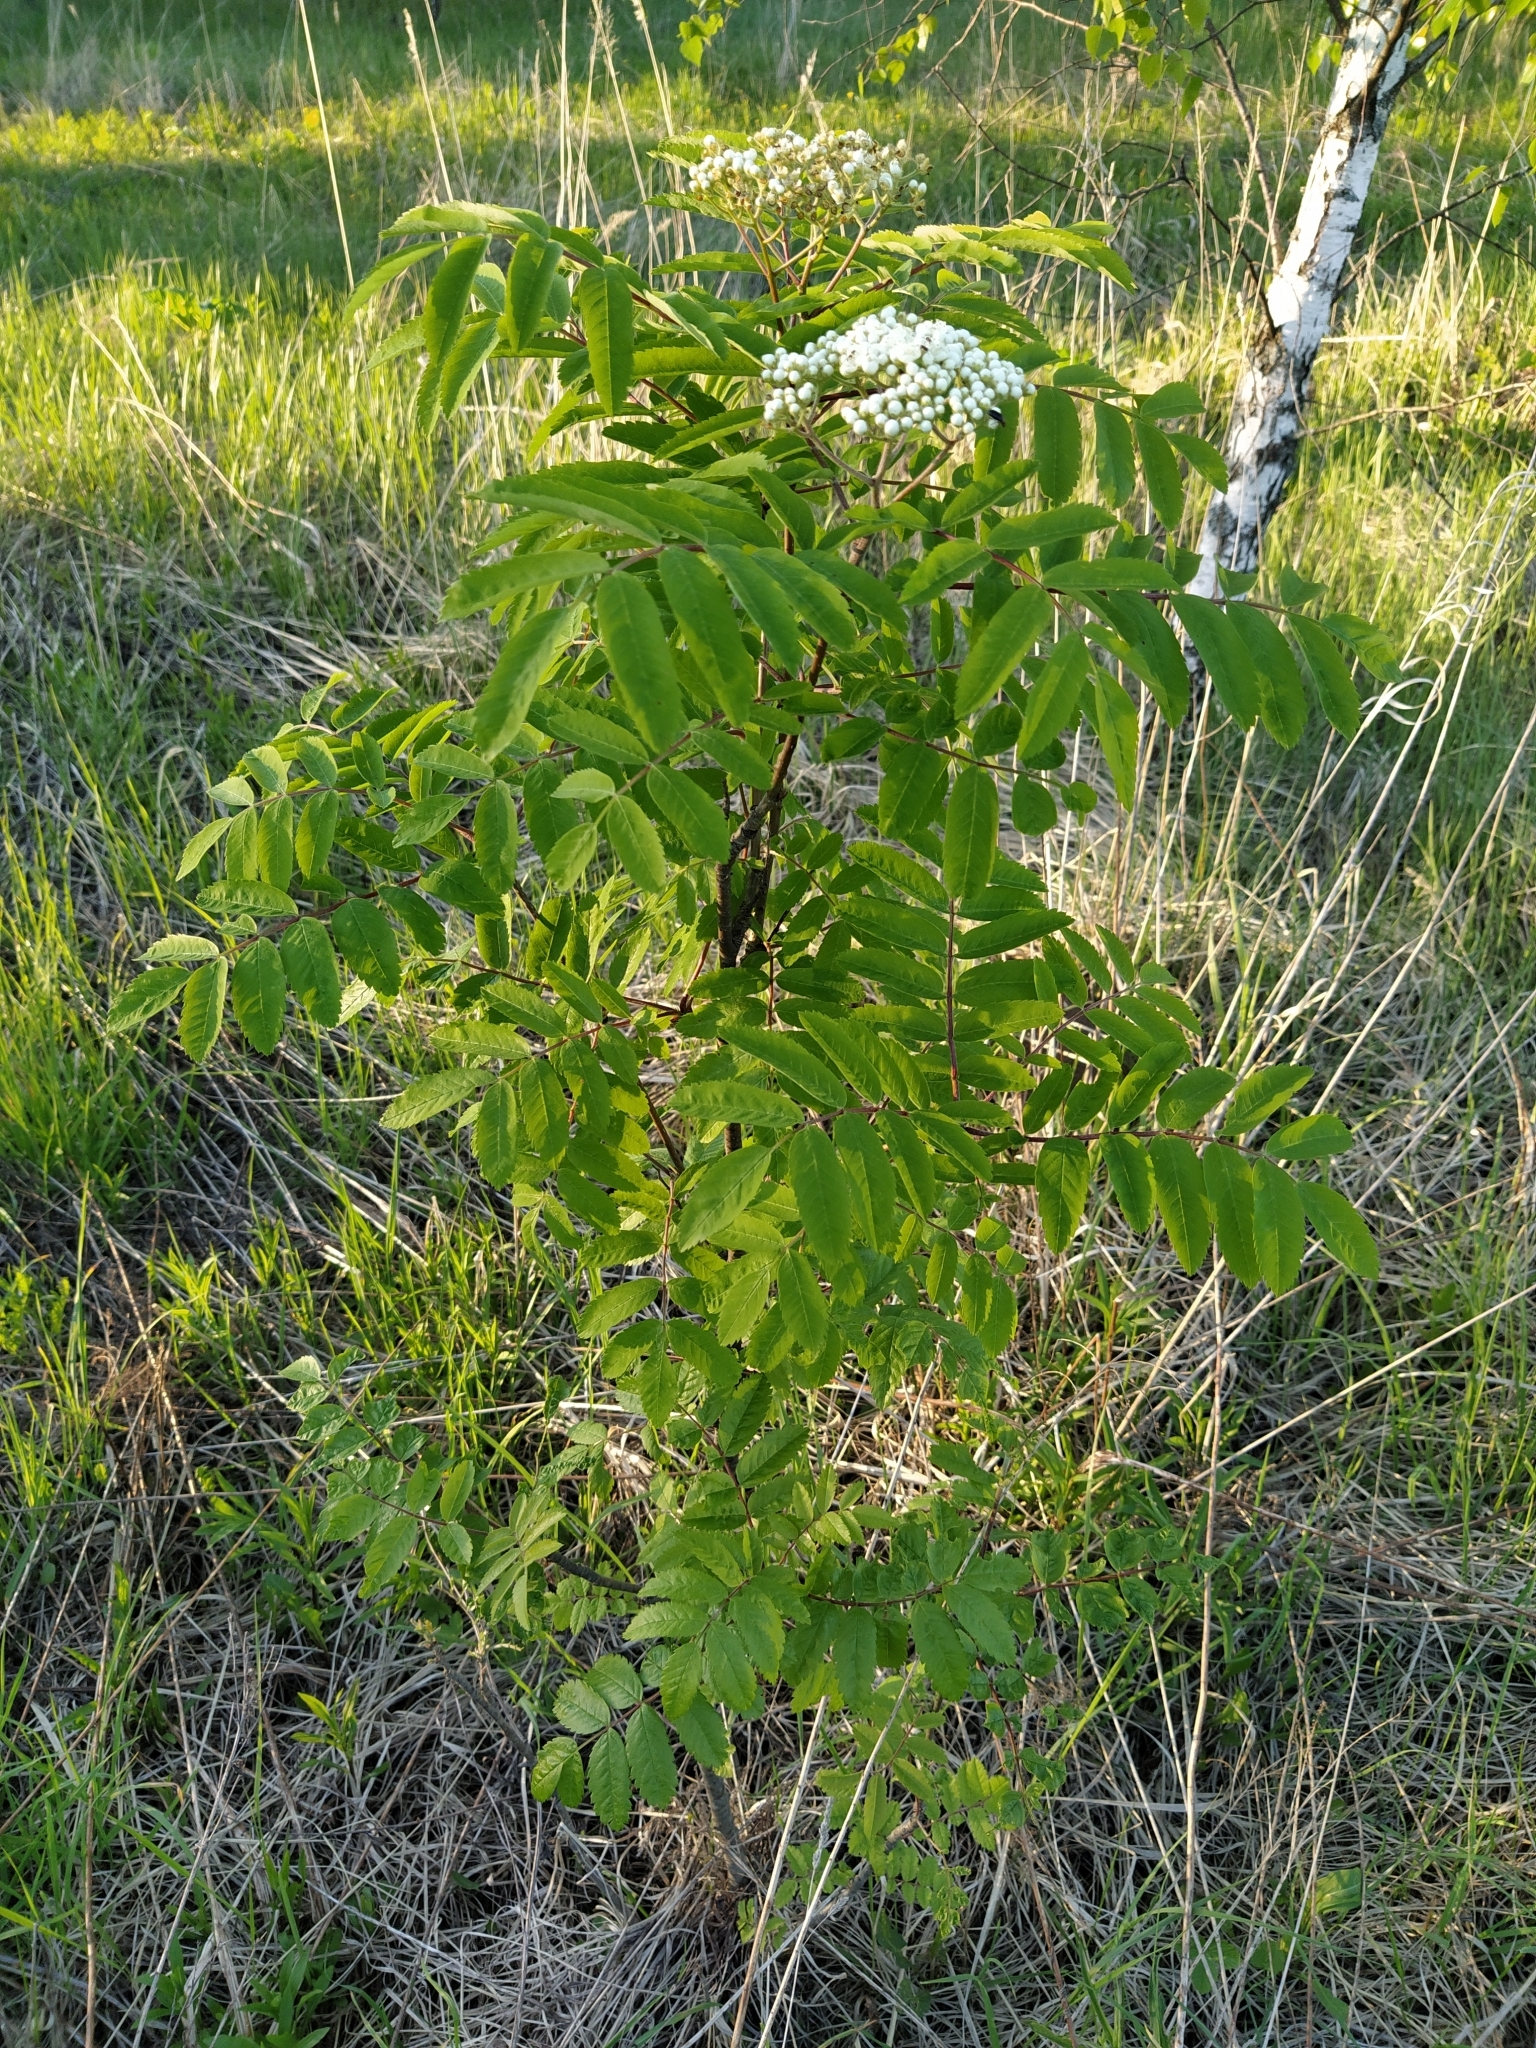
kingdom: Plantae
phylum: Tracheophyta
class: Magnoliopsida
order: Rosales
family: Rosaceae
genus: Sorbus
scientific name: Sorbus aucuparia
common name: Rowan
